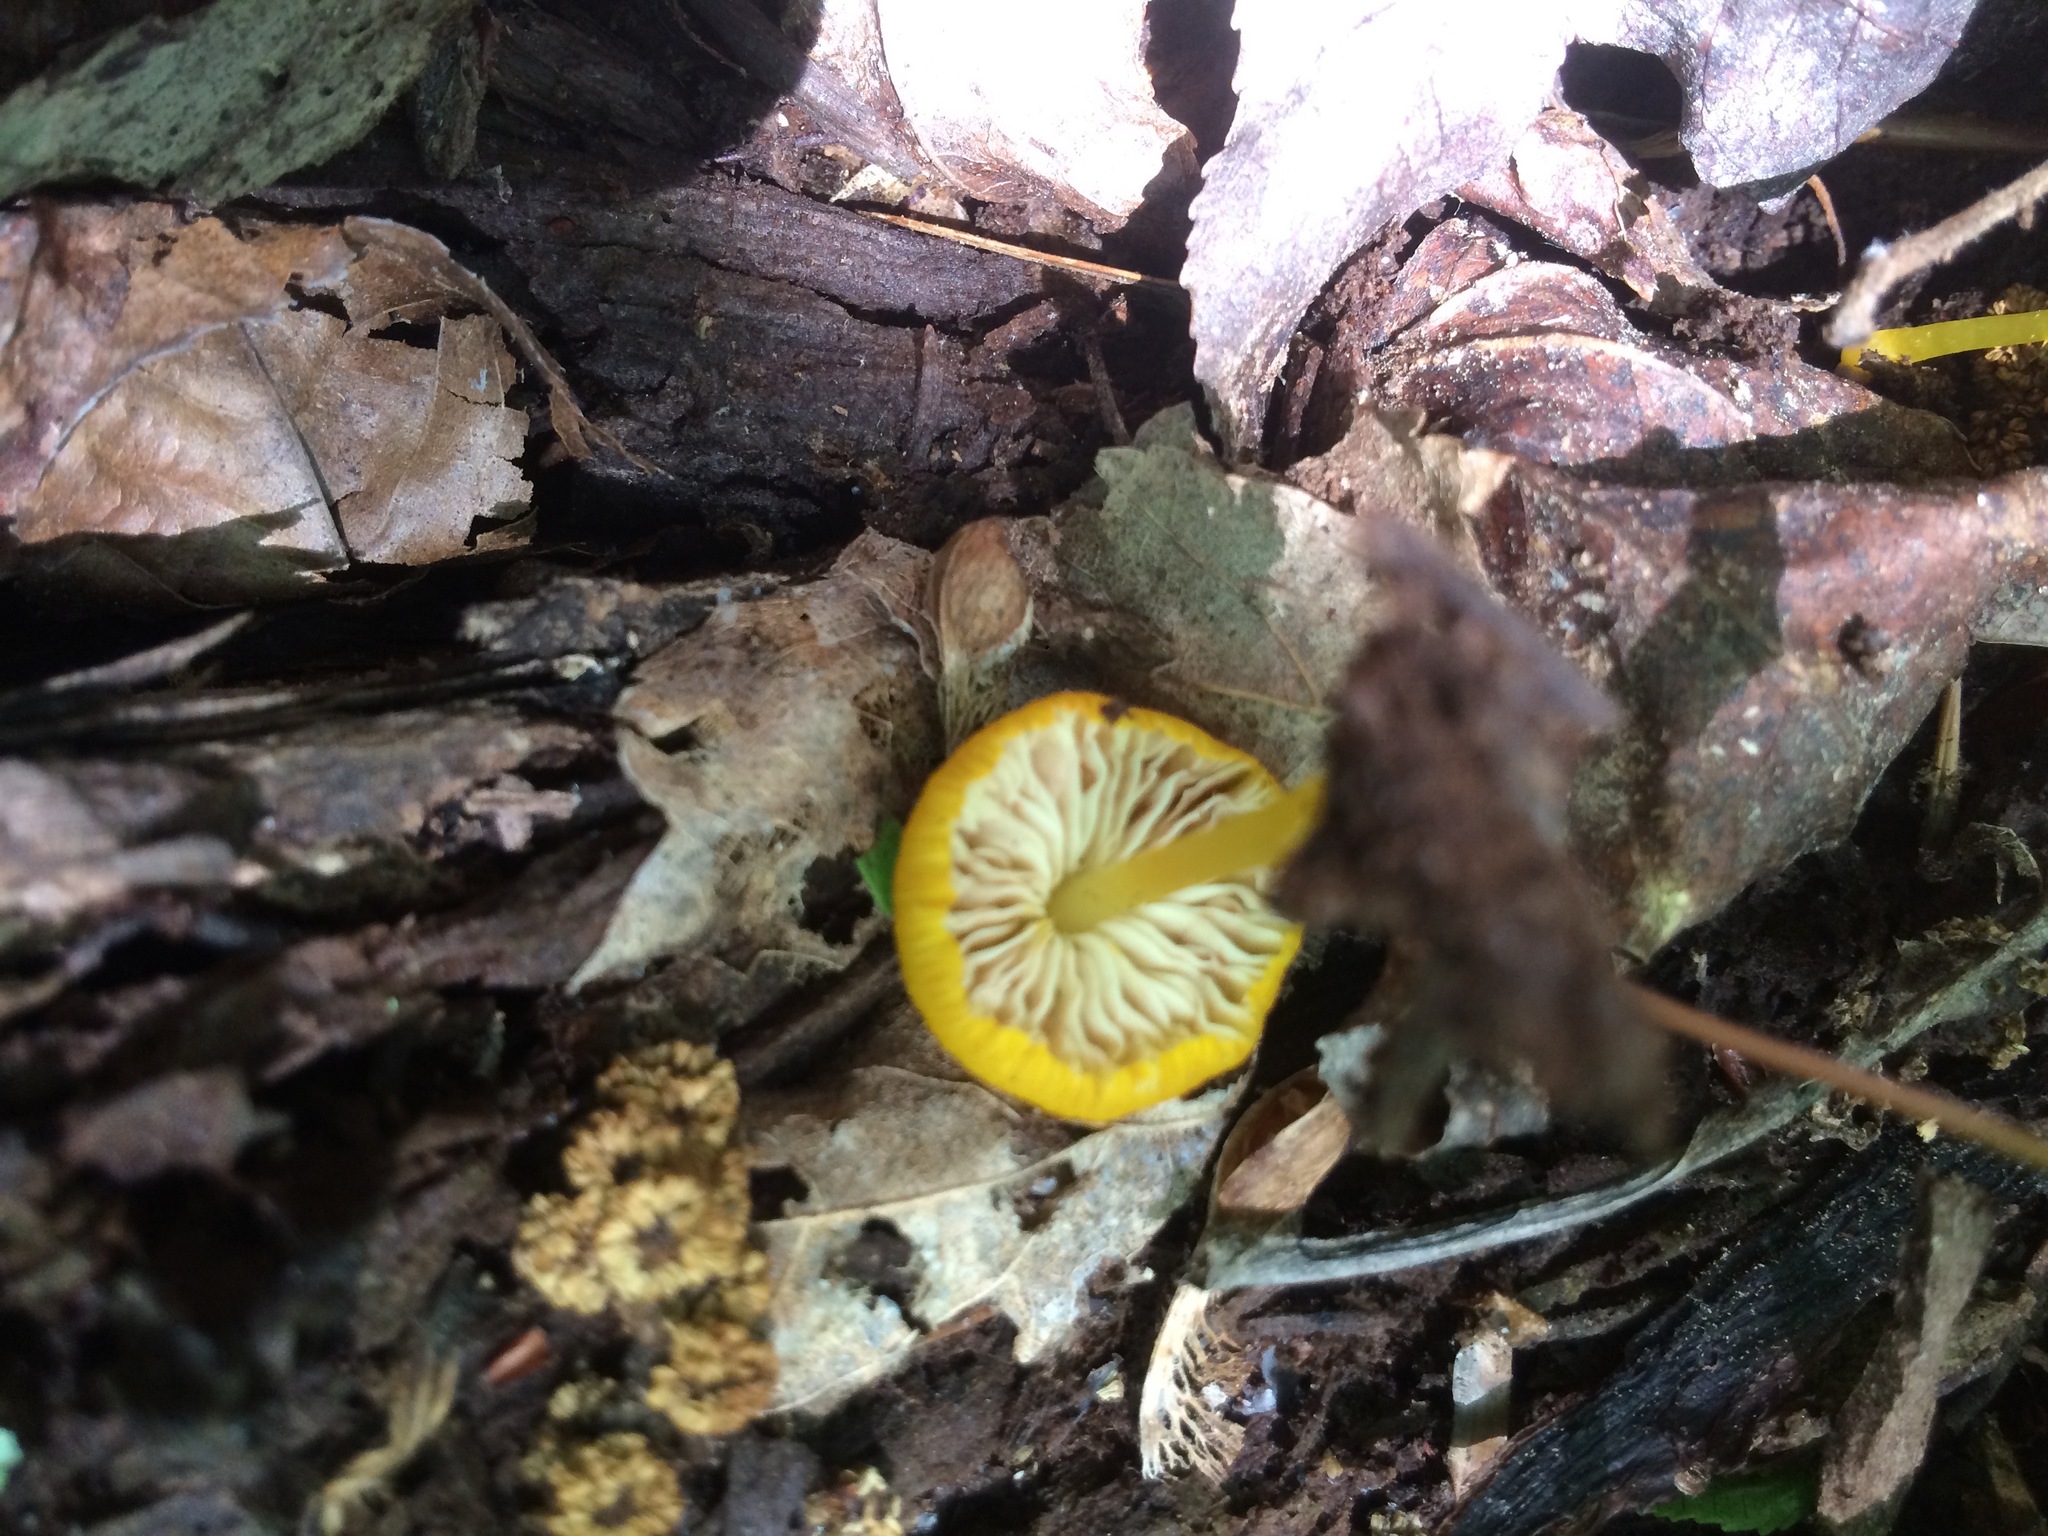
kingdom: Fungi
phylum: Basidiomycota
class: Agaricomycetes
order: Agaricales
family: Pluteaceae
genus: Pluteus
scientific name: Pluteus chrysophlebius
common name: Yellow deer mushroom
